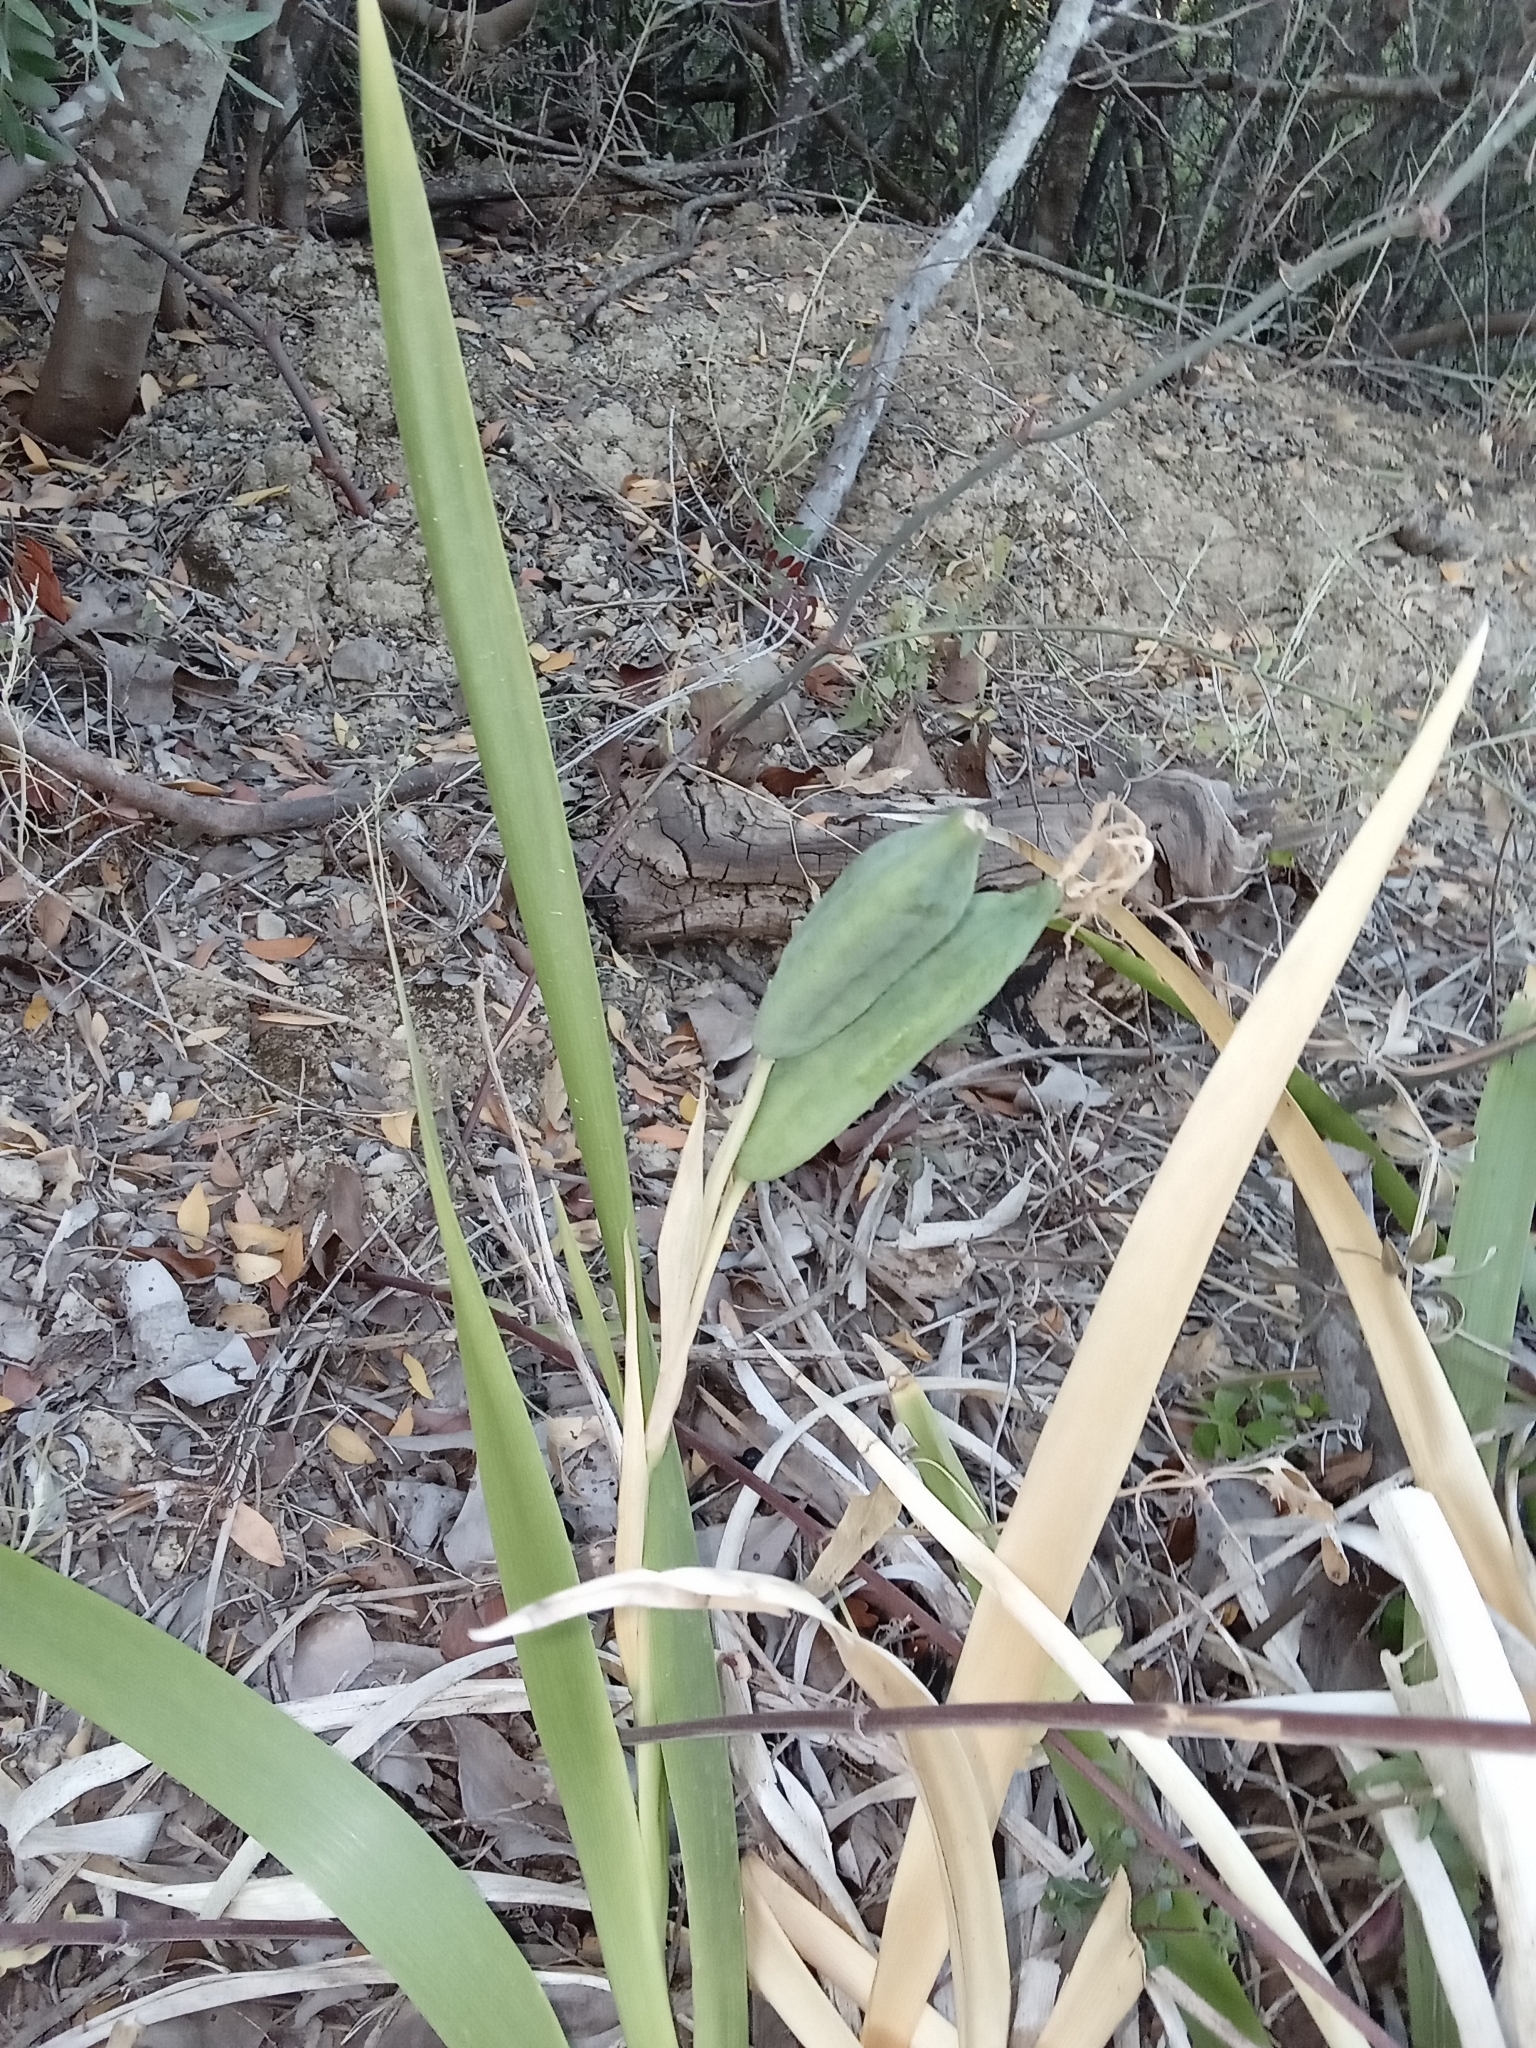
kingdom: Plantae
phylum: Tracheophyta
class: Liliopsida
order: Asparagales
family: Iridaceae
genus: Iris
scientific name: Iris foetidissima
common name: Stinking iris
